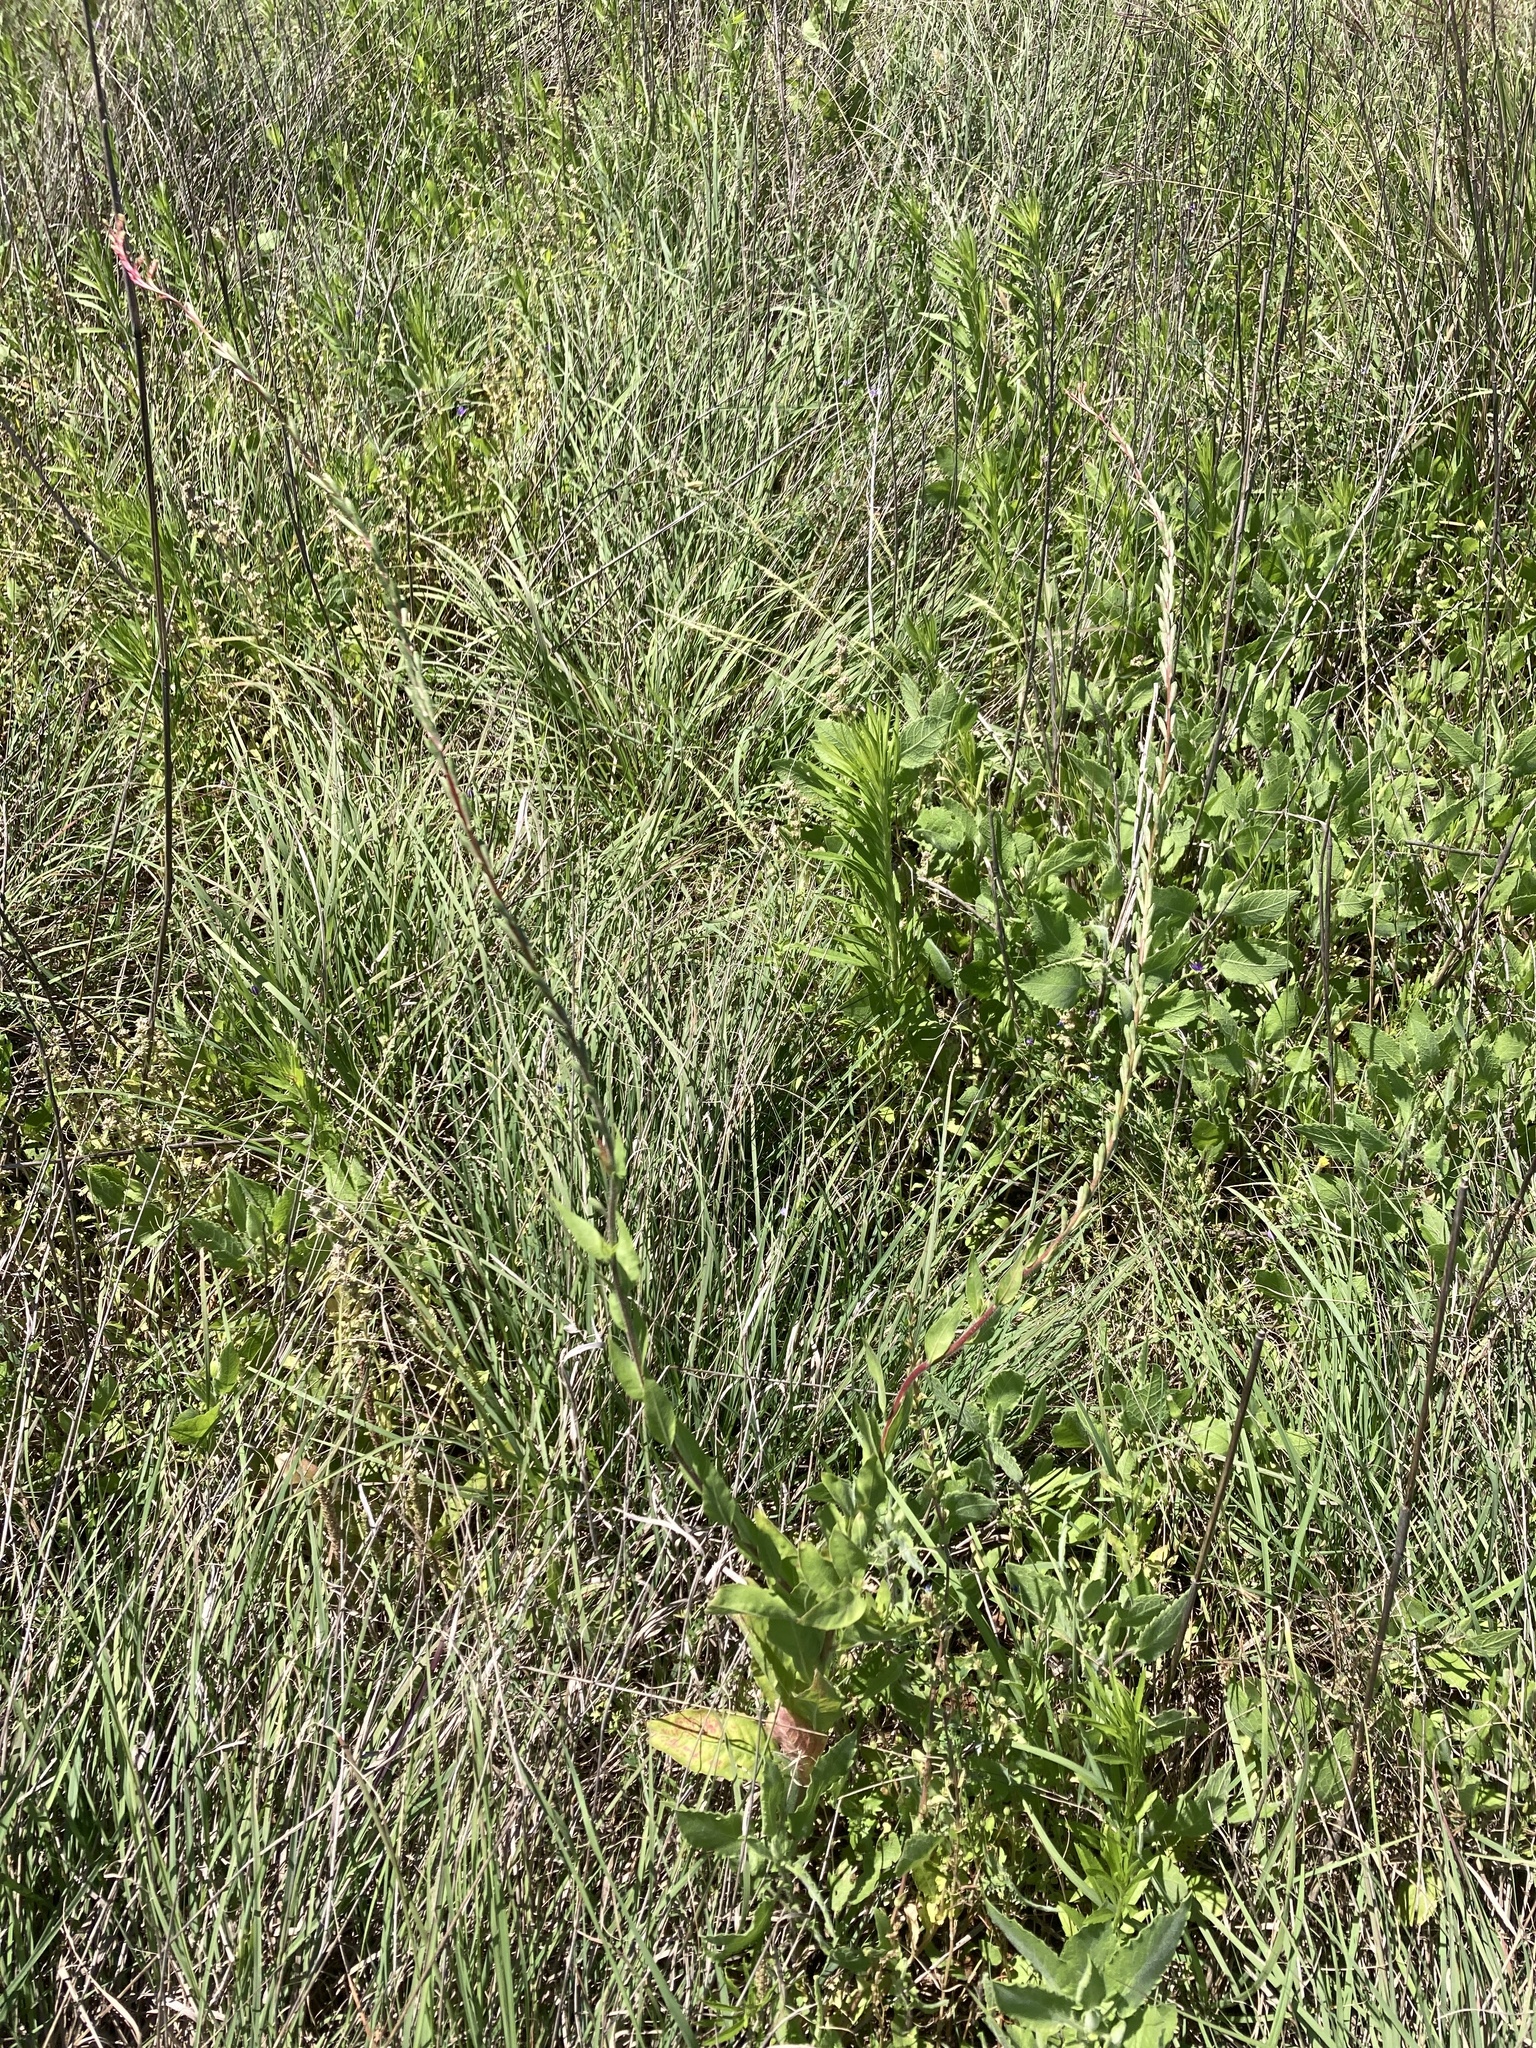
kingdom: Plantae
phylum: Tracheophyta
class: Magnoliopsida
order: Myrtales
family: Onagraceae
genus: Oenothera
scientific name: Oenothera curtiflora
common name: Velvetweed
